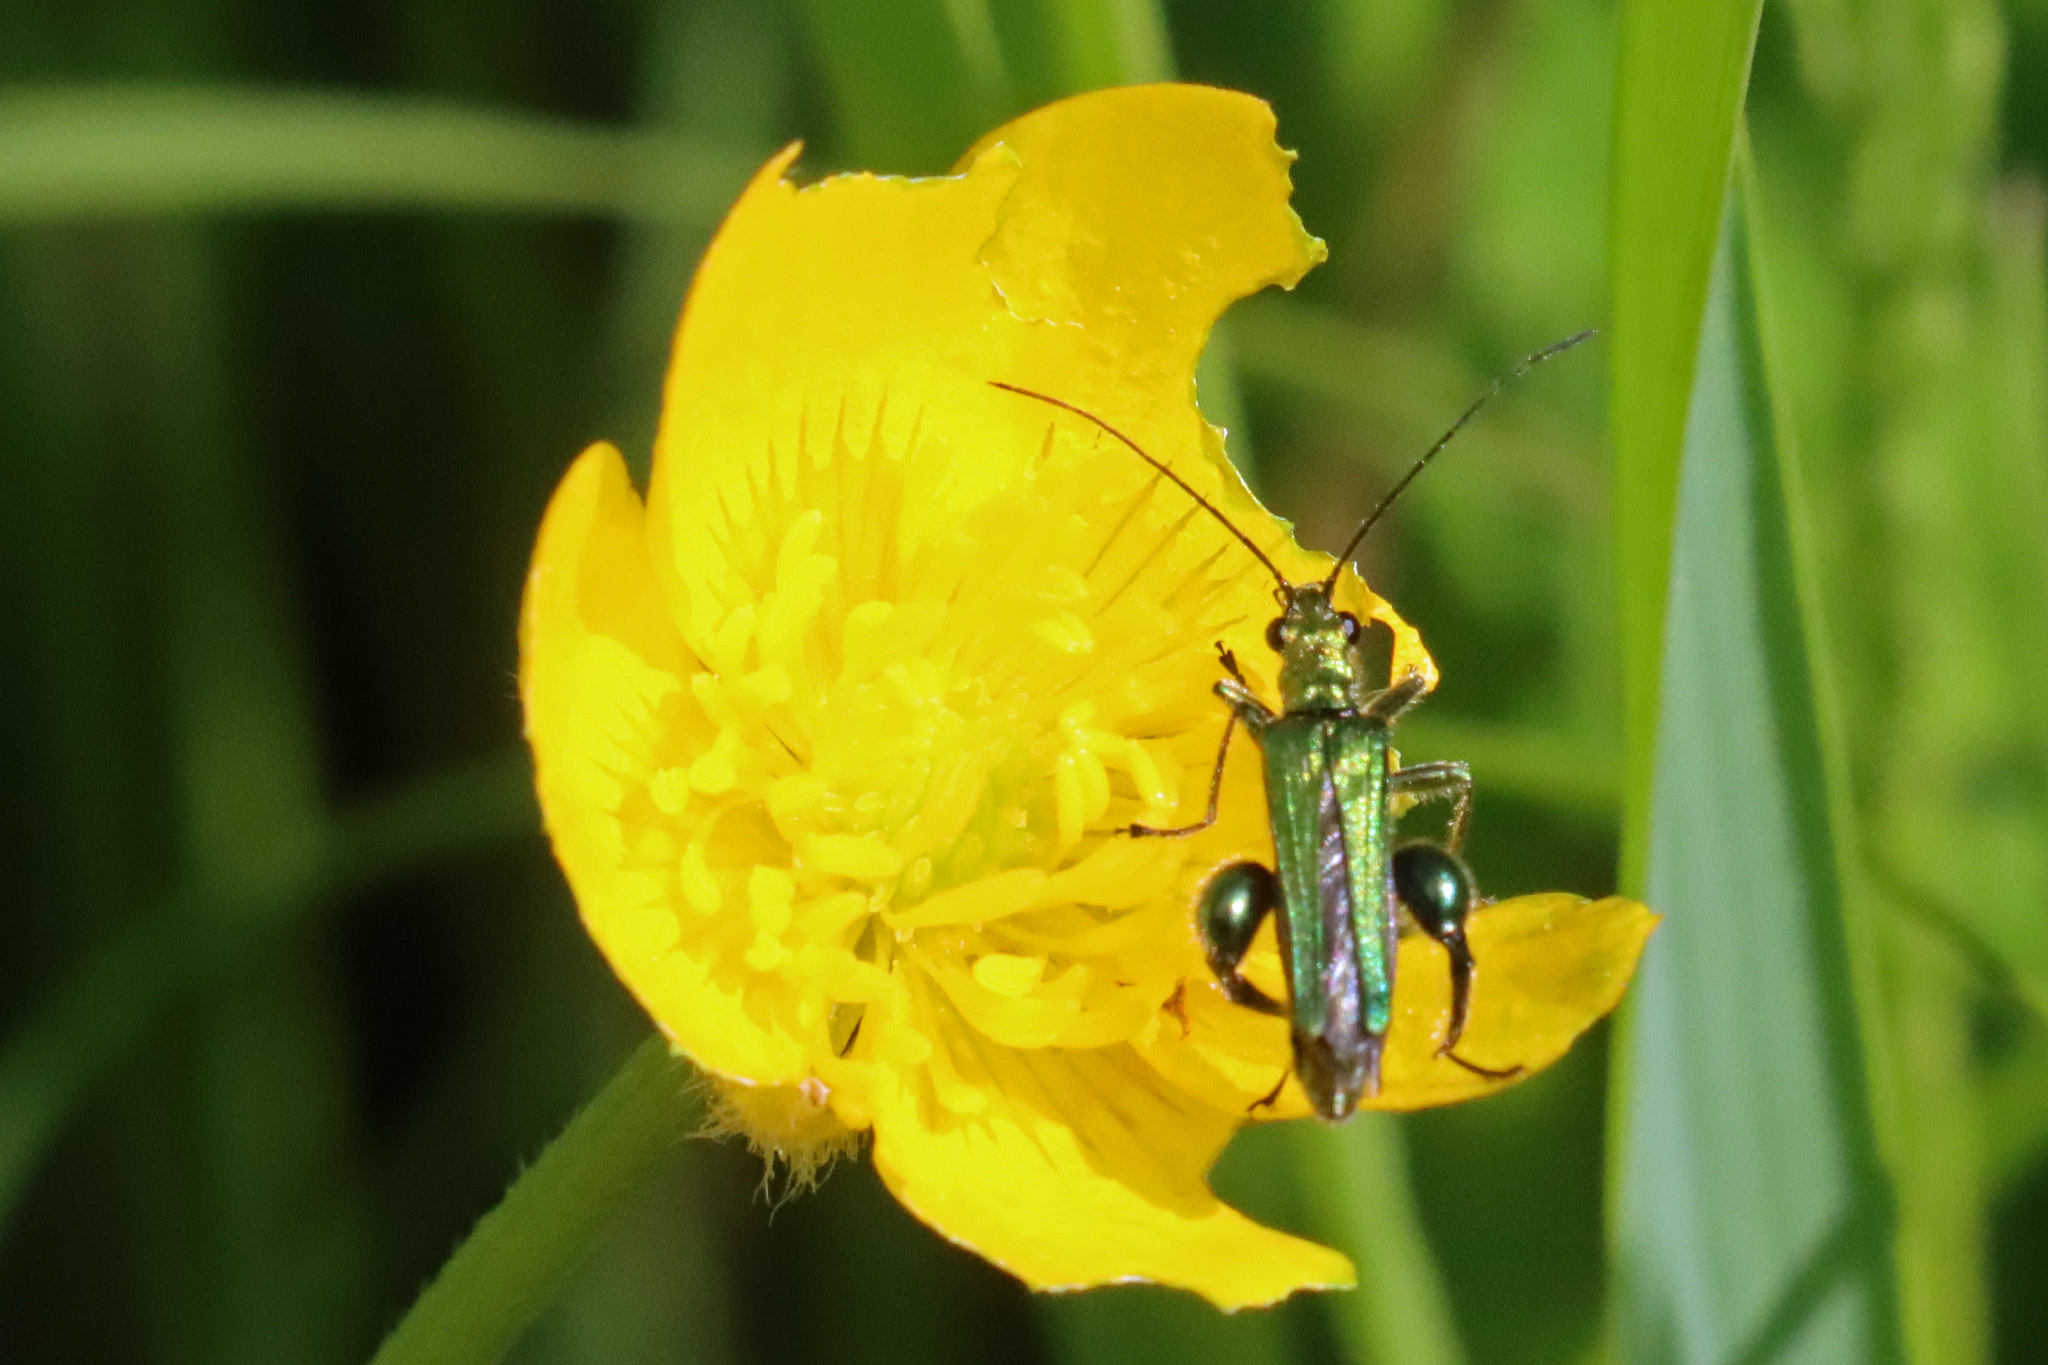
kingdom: Animalia
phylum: Arthropoda
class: Insecta
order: Coleoptera
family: Oedemeridae
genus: Oedemera
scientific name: Oedemera nobilis
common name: Swollen-thighed beetle
